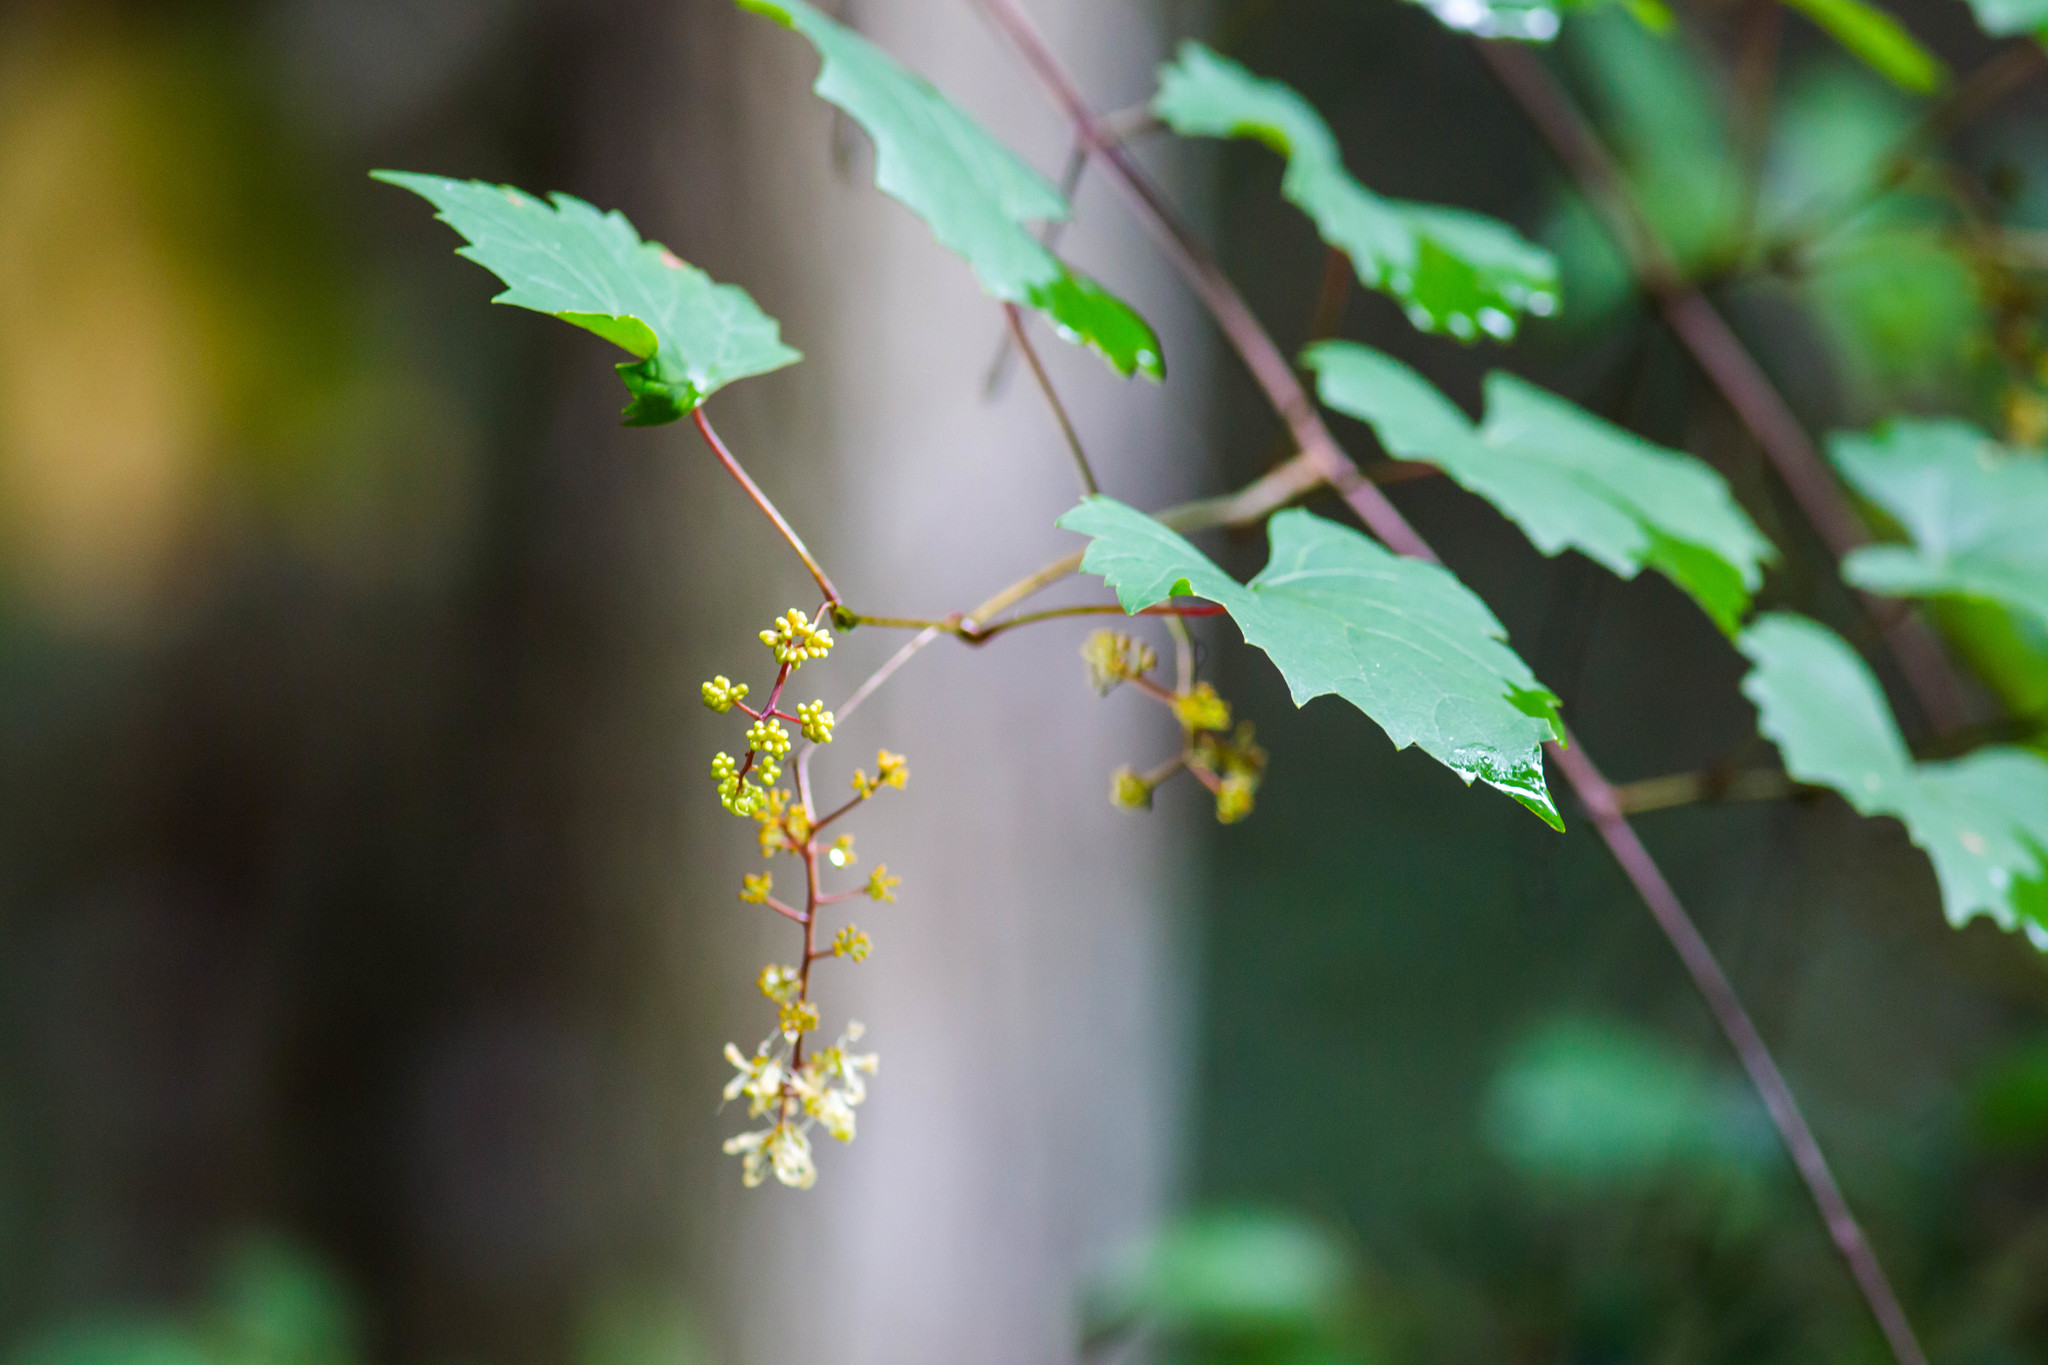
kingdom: Plantae
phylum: Tracheophyta
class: Magnoliopsida
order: Vitales
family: Vitaceae
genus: Vitis
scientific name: Vitis rotundifolia
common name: Muscadine grape
